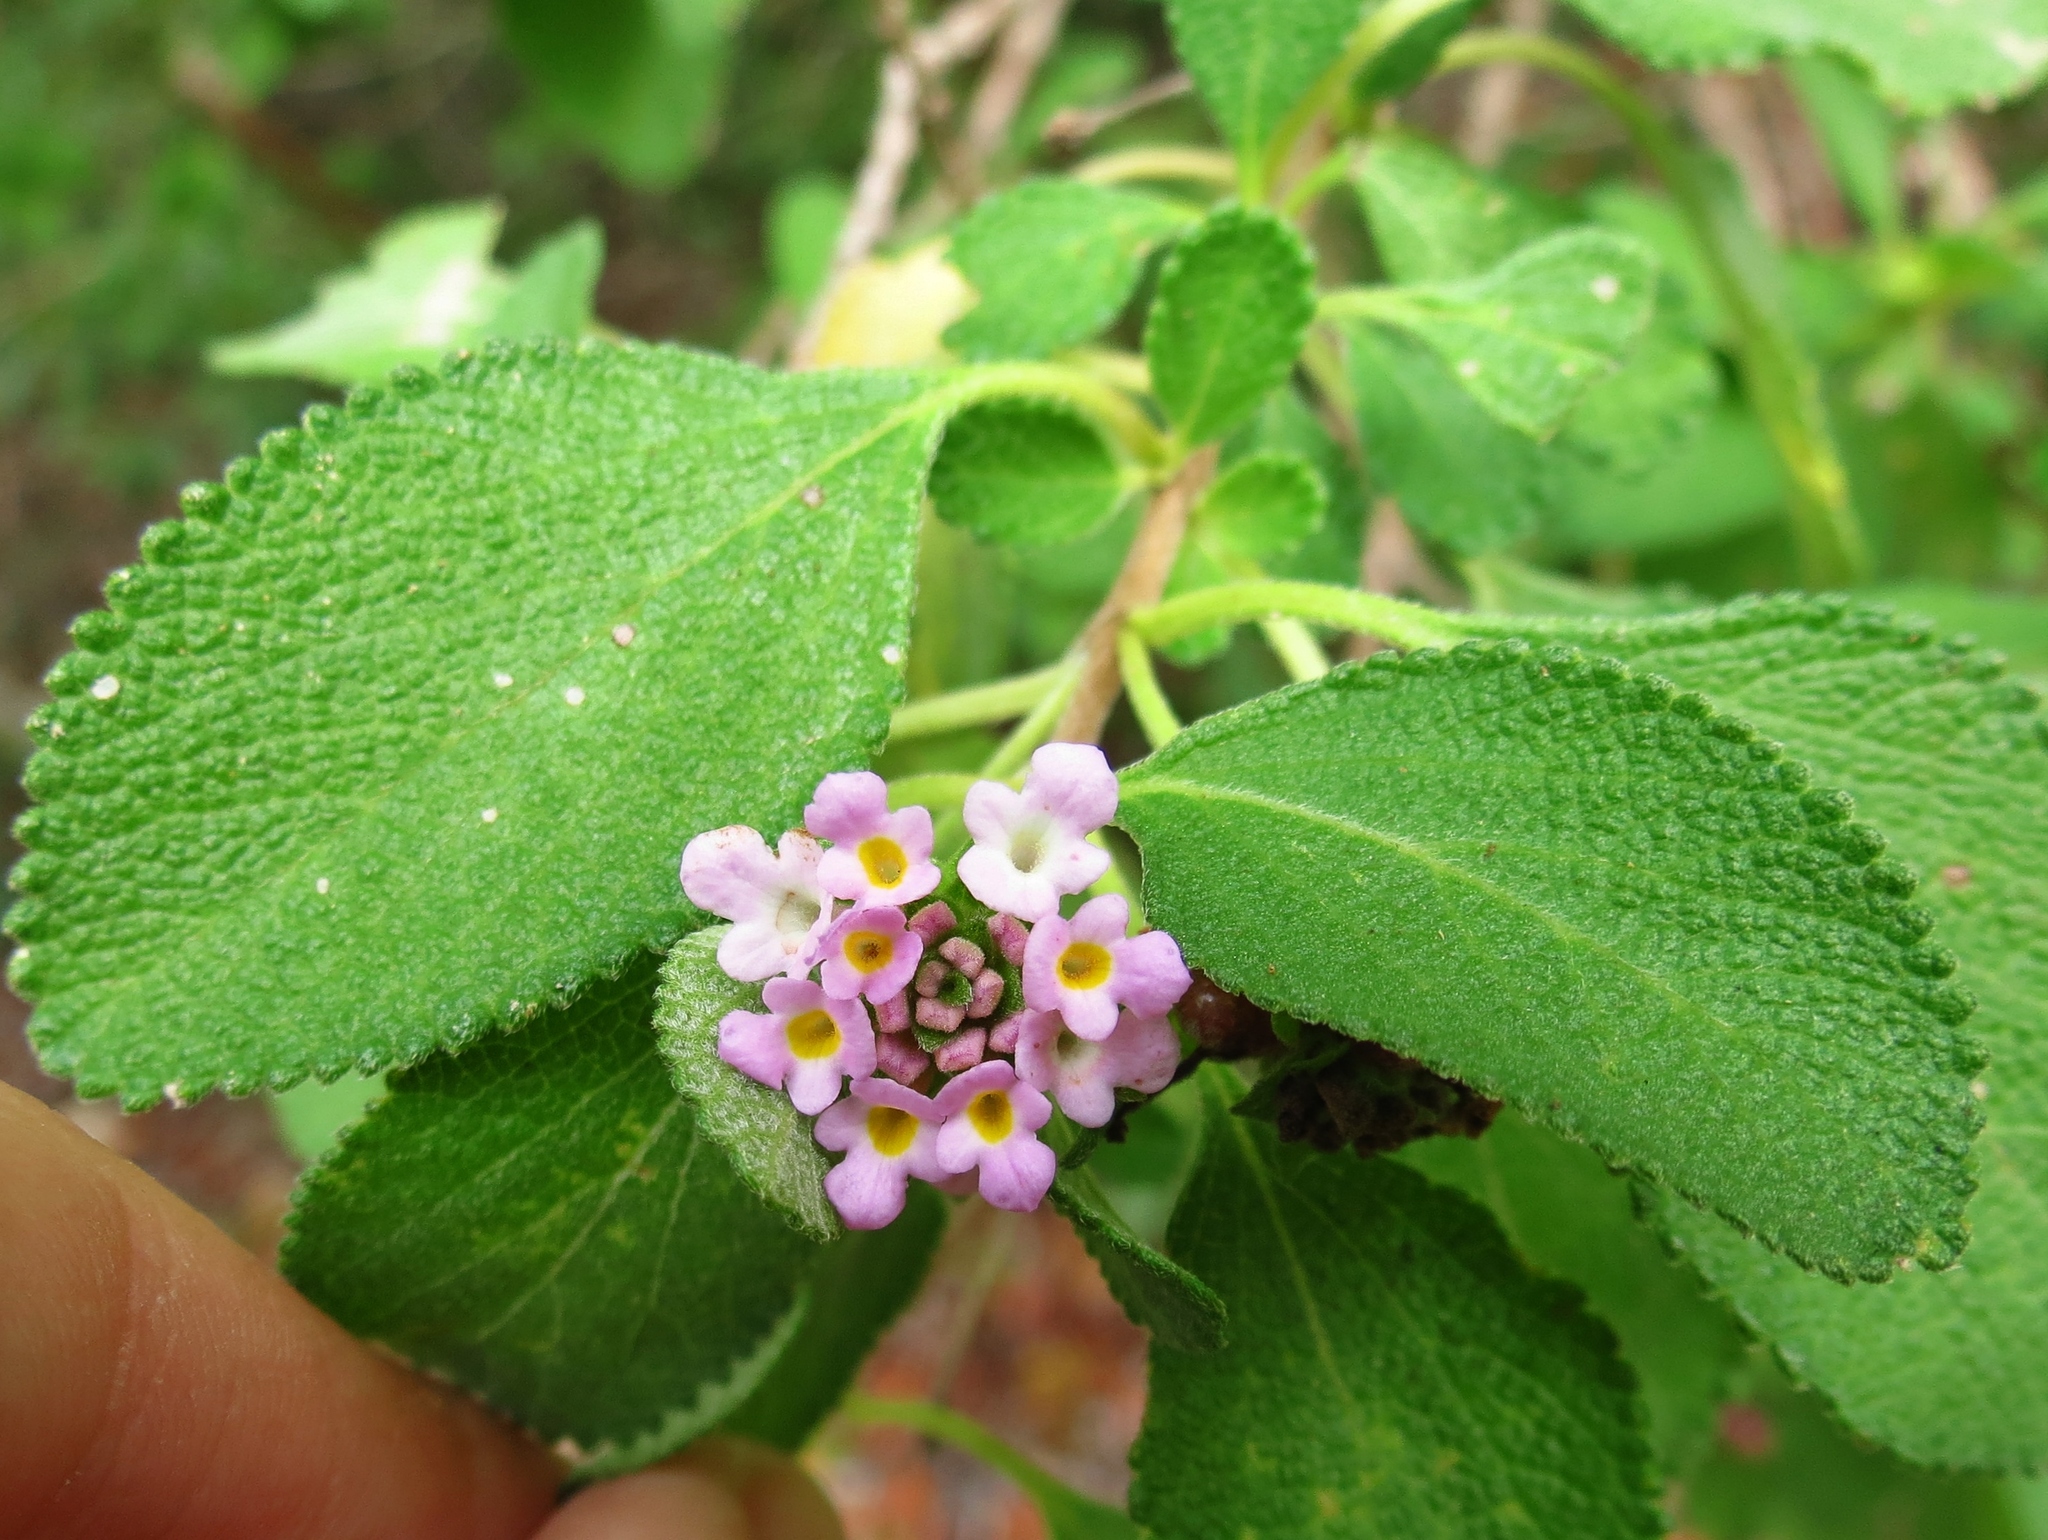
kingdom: Plantae
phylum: Tracheophyta
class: Magnoliopsida
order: Lamiales
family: Verbenaceae
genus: Lantana
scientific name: Lantana involucrata
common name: Black sage
